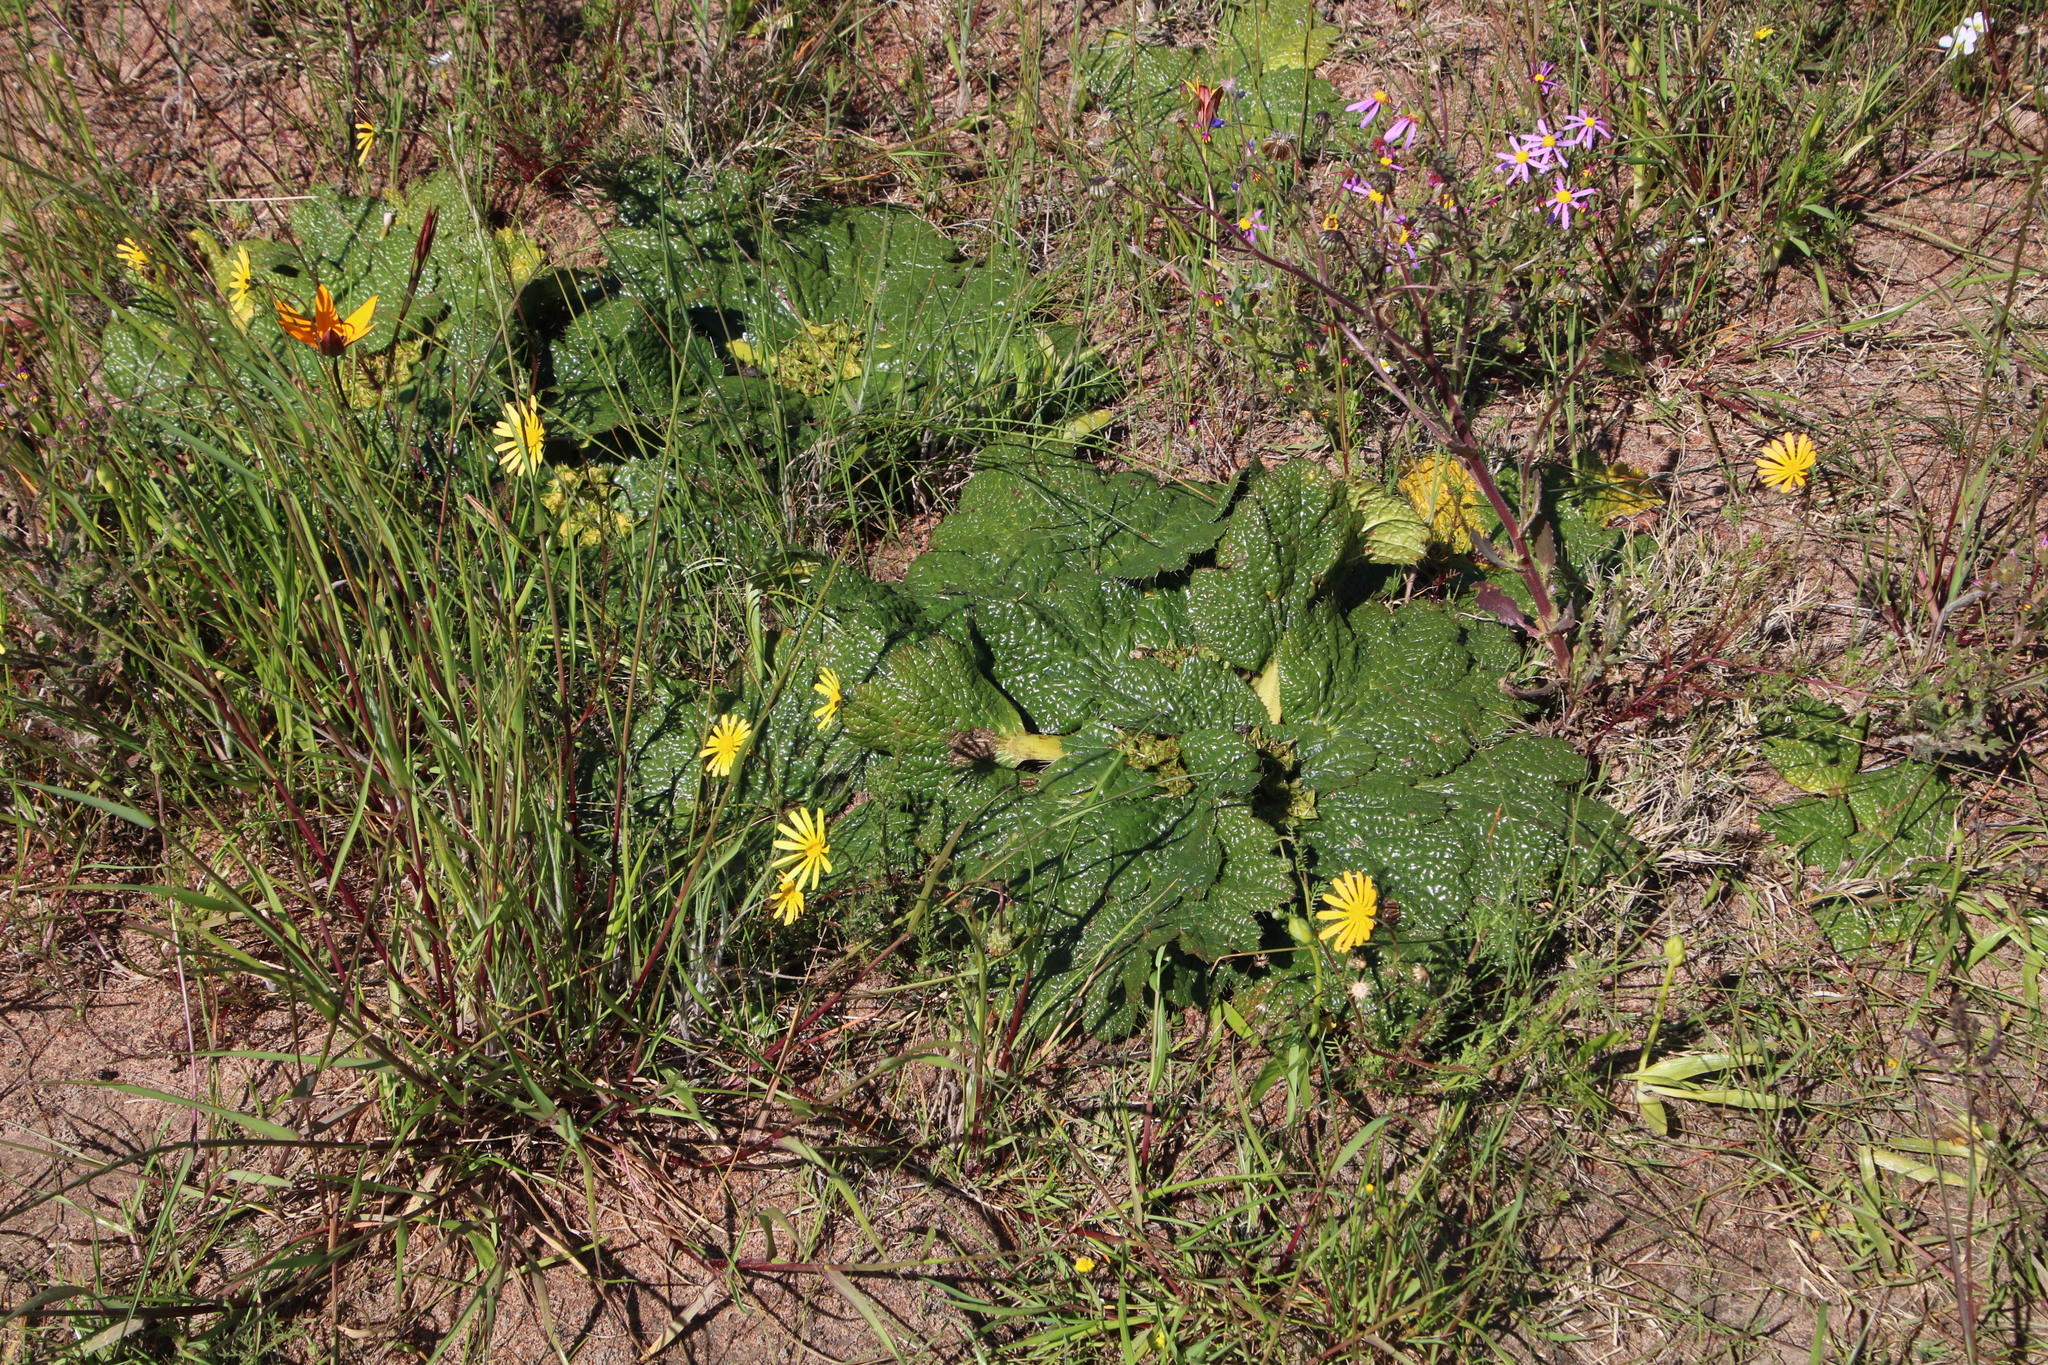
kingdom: Plantae
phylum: Tracheophyta
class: Magnoliopsida
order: Apiales
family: Apiaceae
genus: Arctopus
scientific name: Arctopus echinatus
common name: Platdoring
